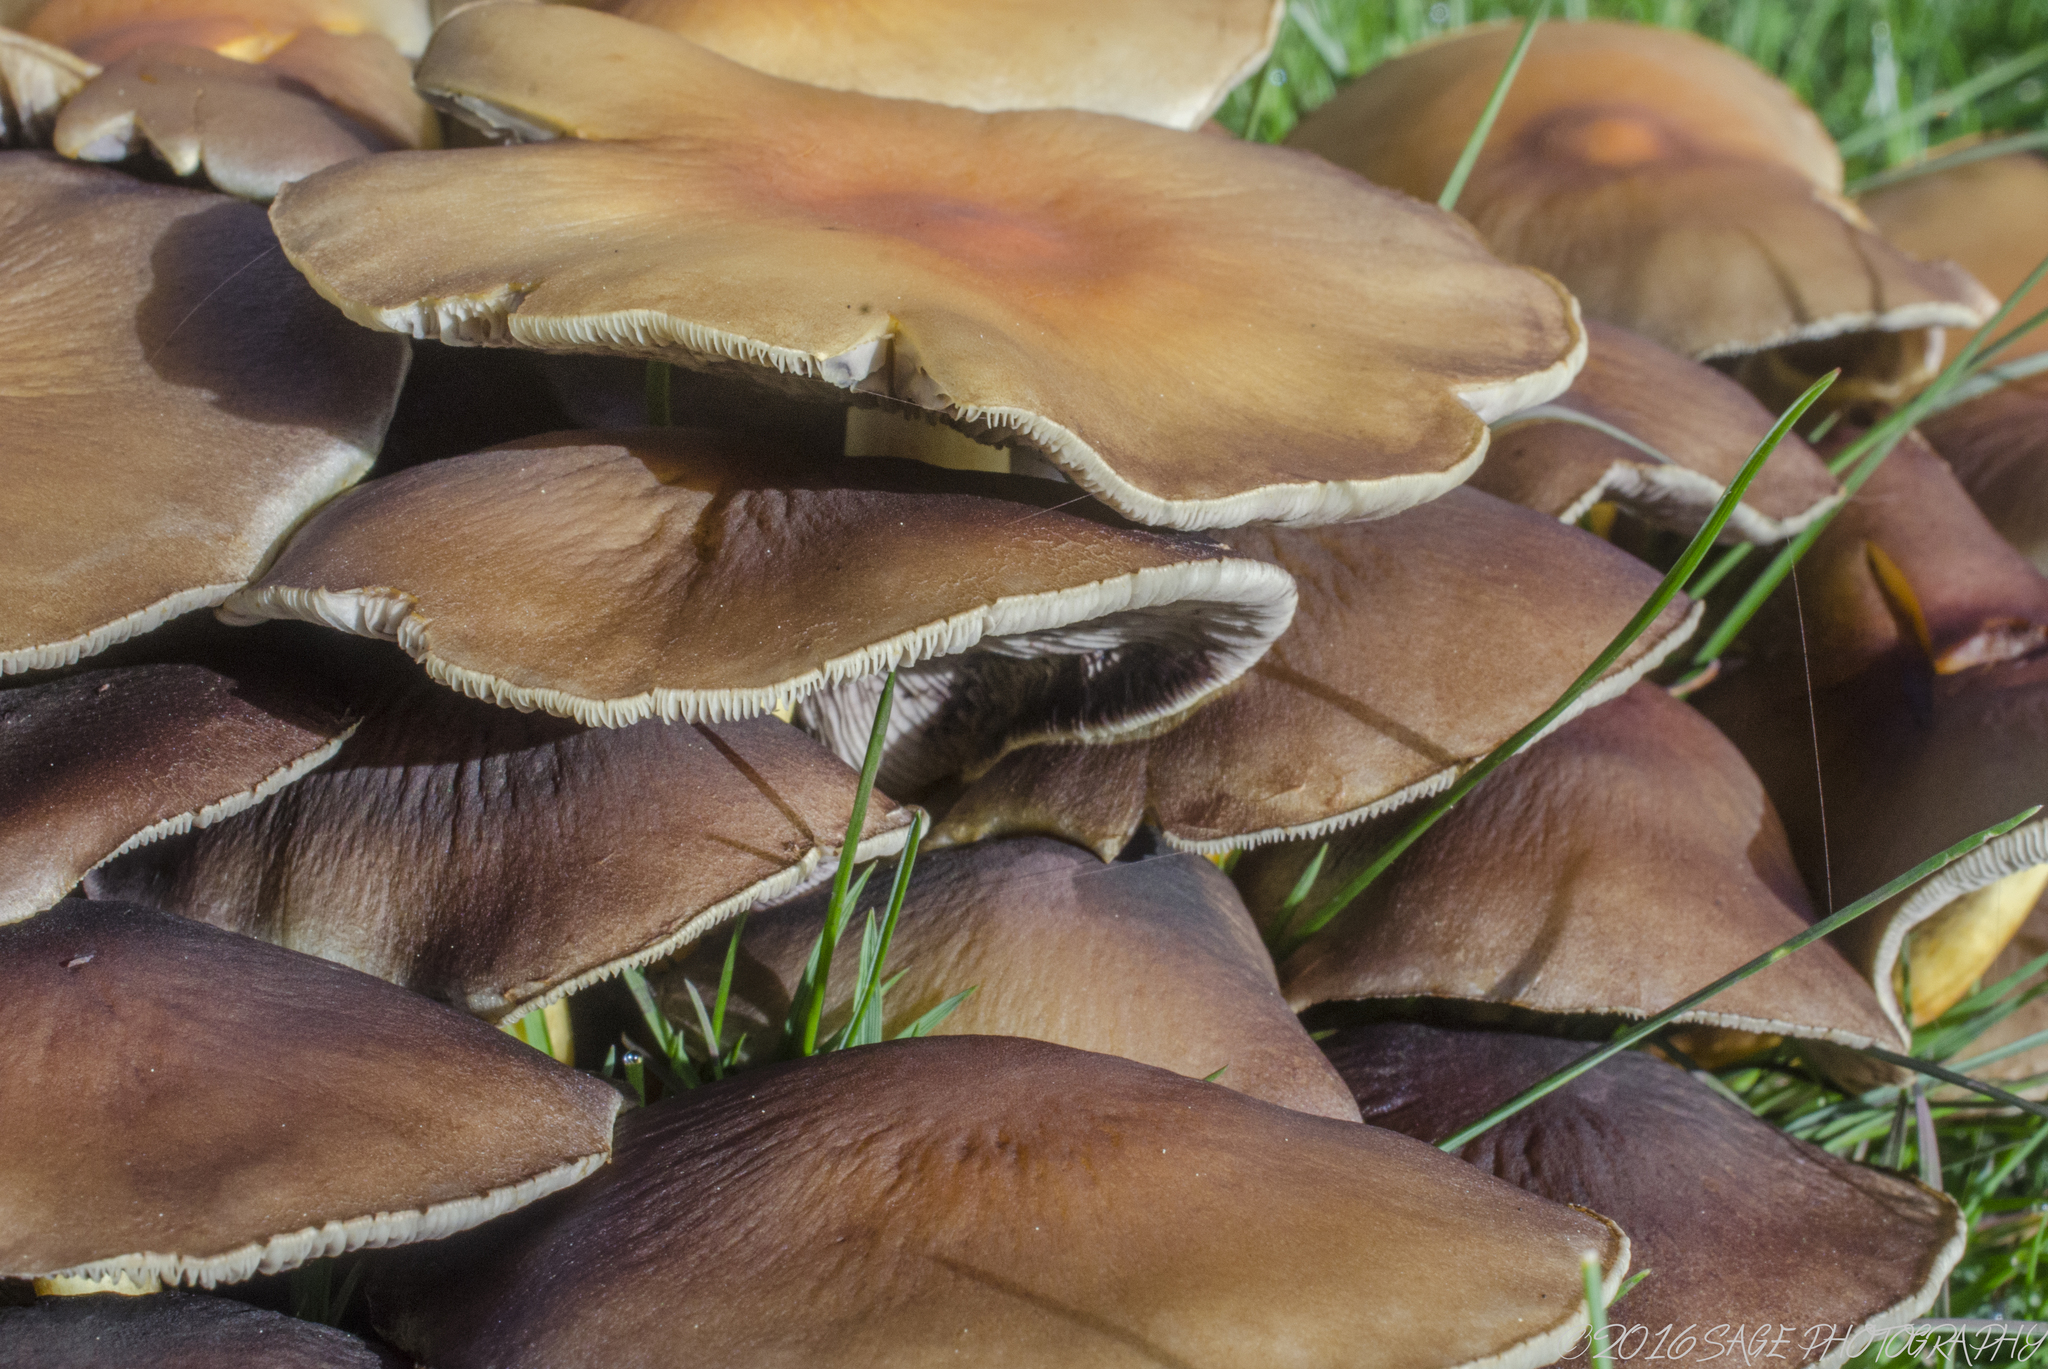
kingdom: Fungi
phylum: Basidiomycota
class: Agaricomycetes
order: Agaricales
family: Strophariaceae
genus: Hypholoma
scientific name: Hypholoma fasciculare
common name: Sulphur tuft
